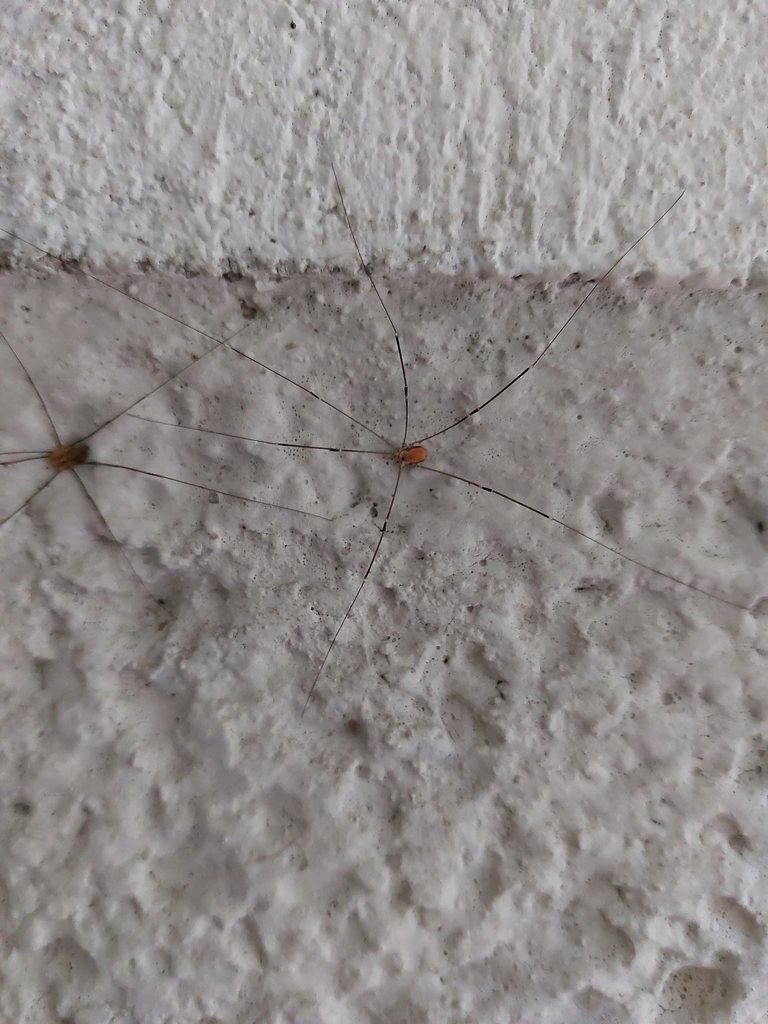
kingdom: Animalia
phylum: Arthropoda
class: Arachnida
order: Opiliones
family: Sclerosomatidae
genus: Leiobunum
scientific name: Leiobunum limbatum
